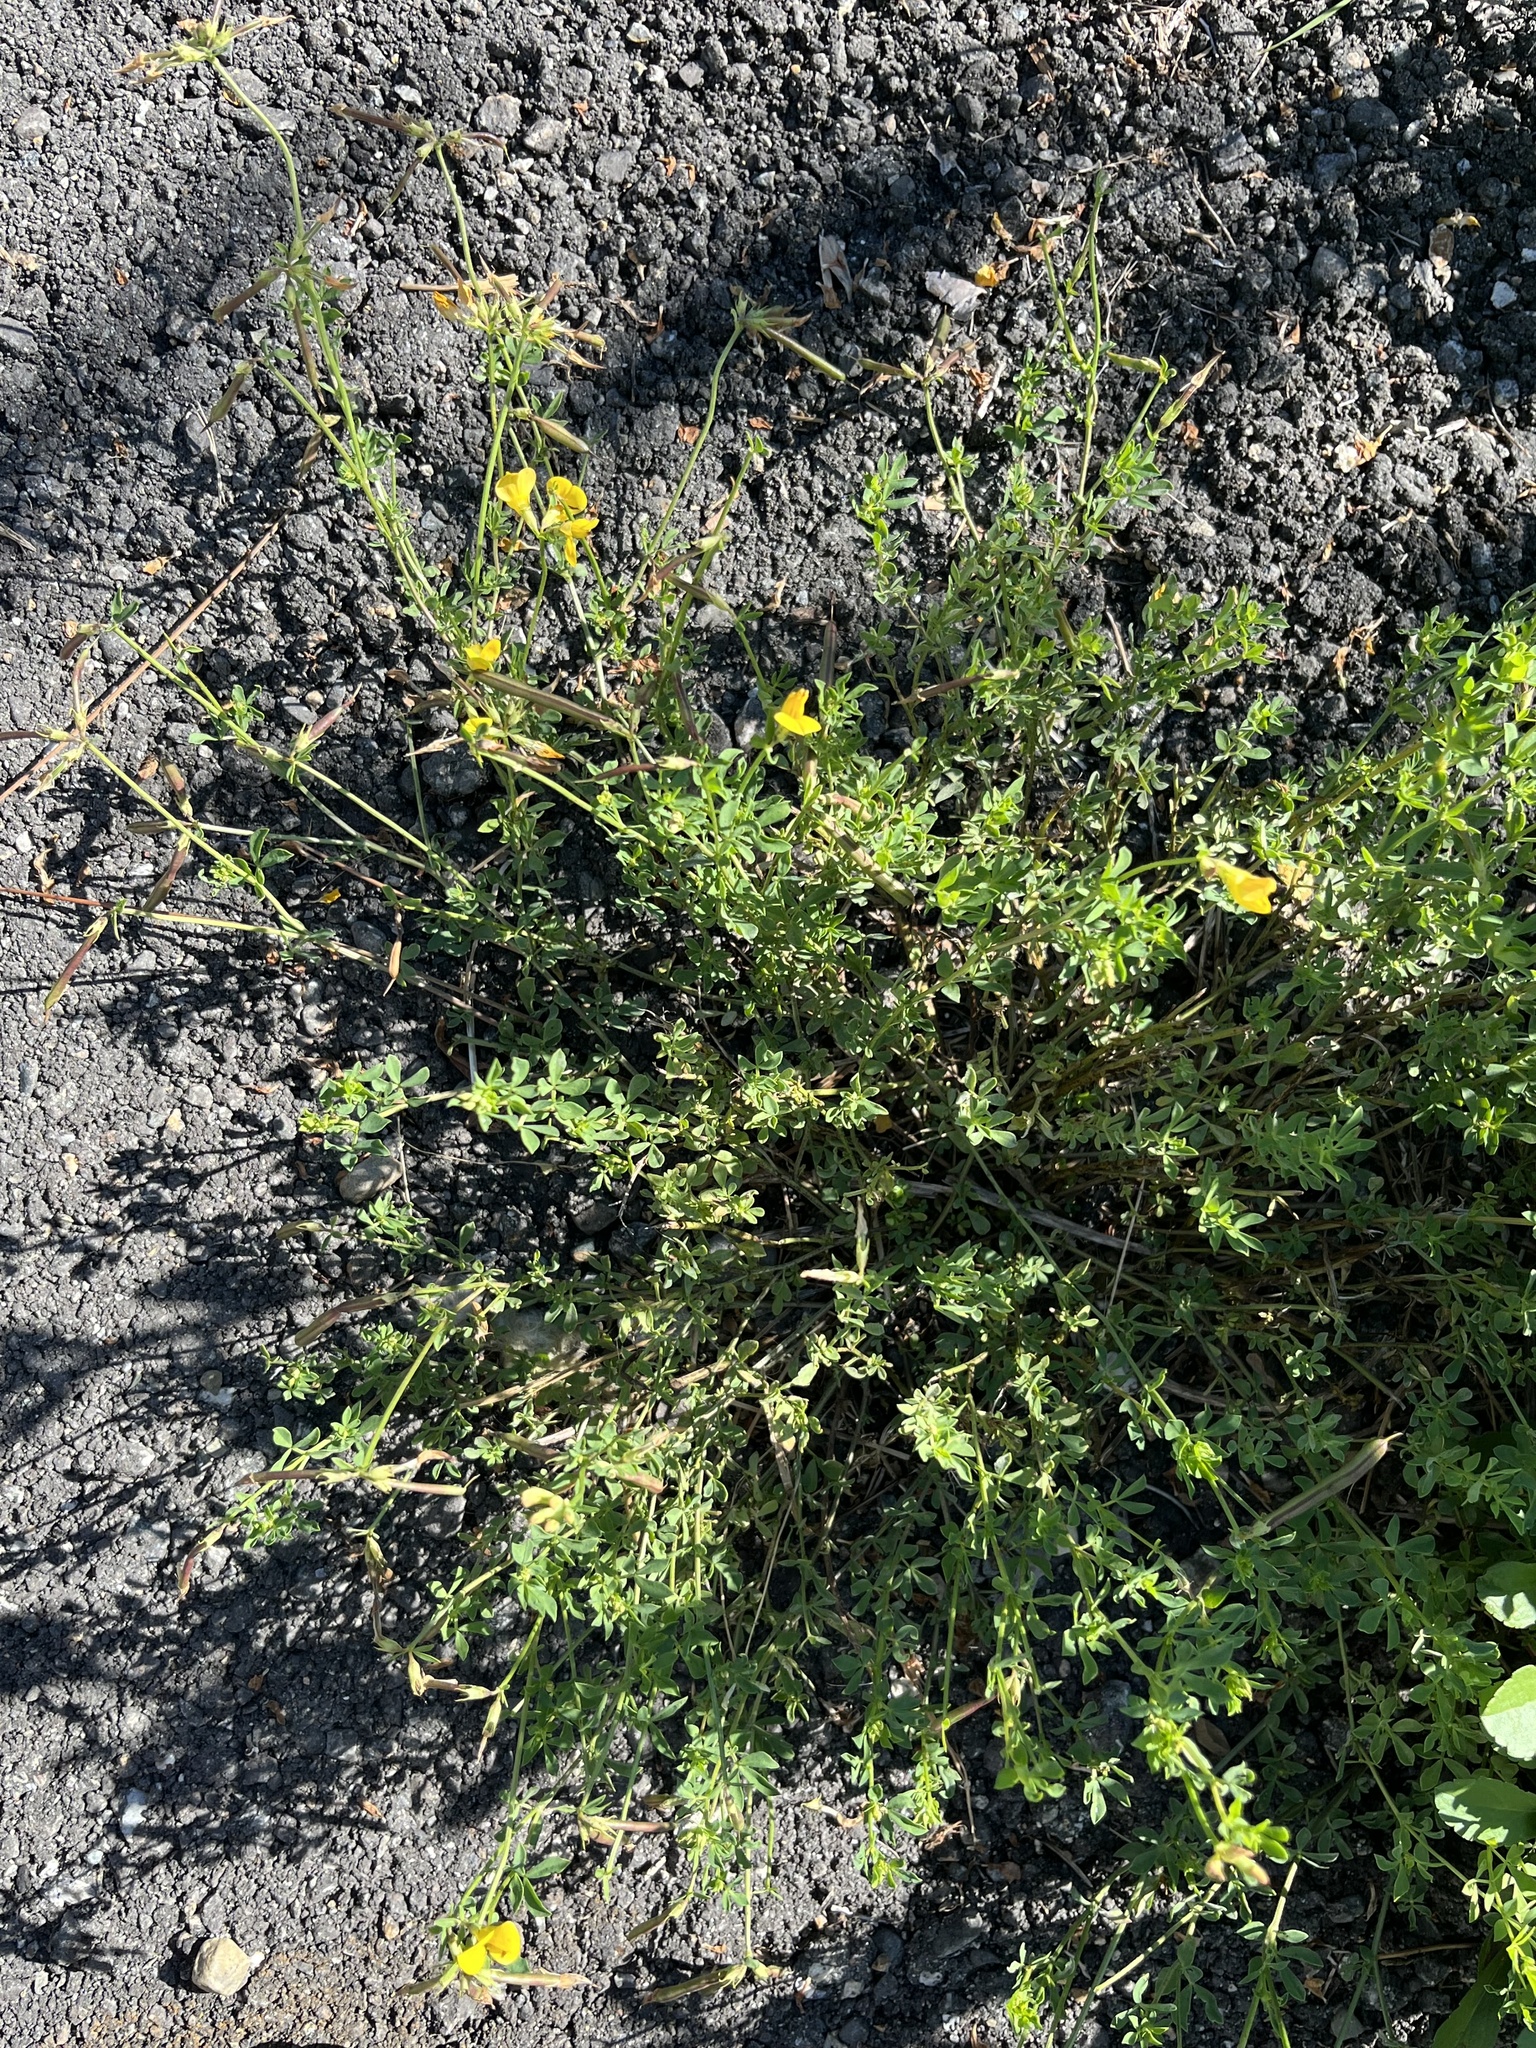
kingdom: Plantae
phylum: Tracheophyta
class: Magnoliopsida
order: Fabales
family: Fabaceae
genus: Lotus
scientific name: Lotus corniculatus
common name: Common bird's-foot-trefoil
